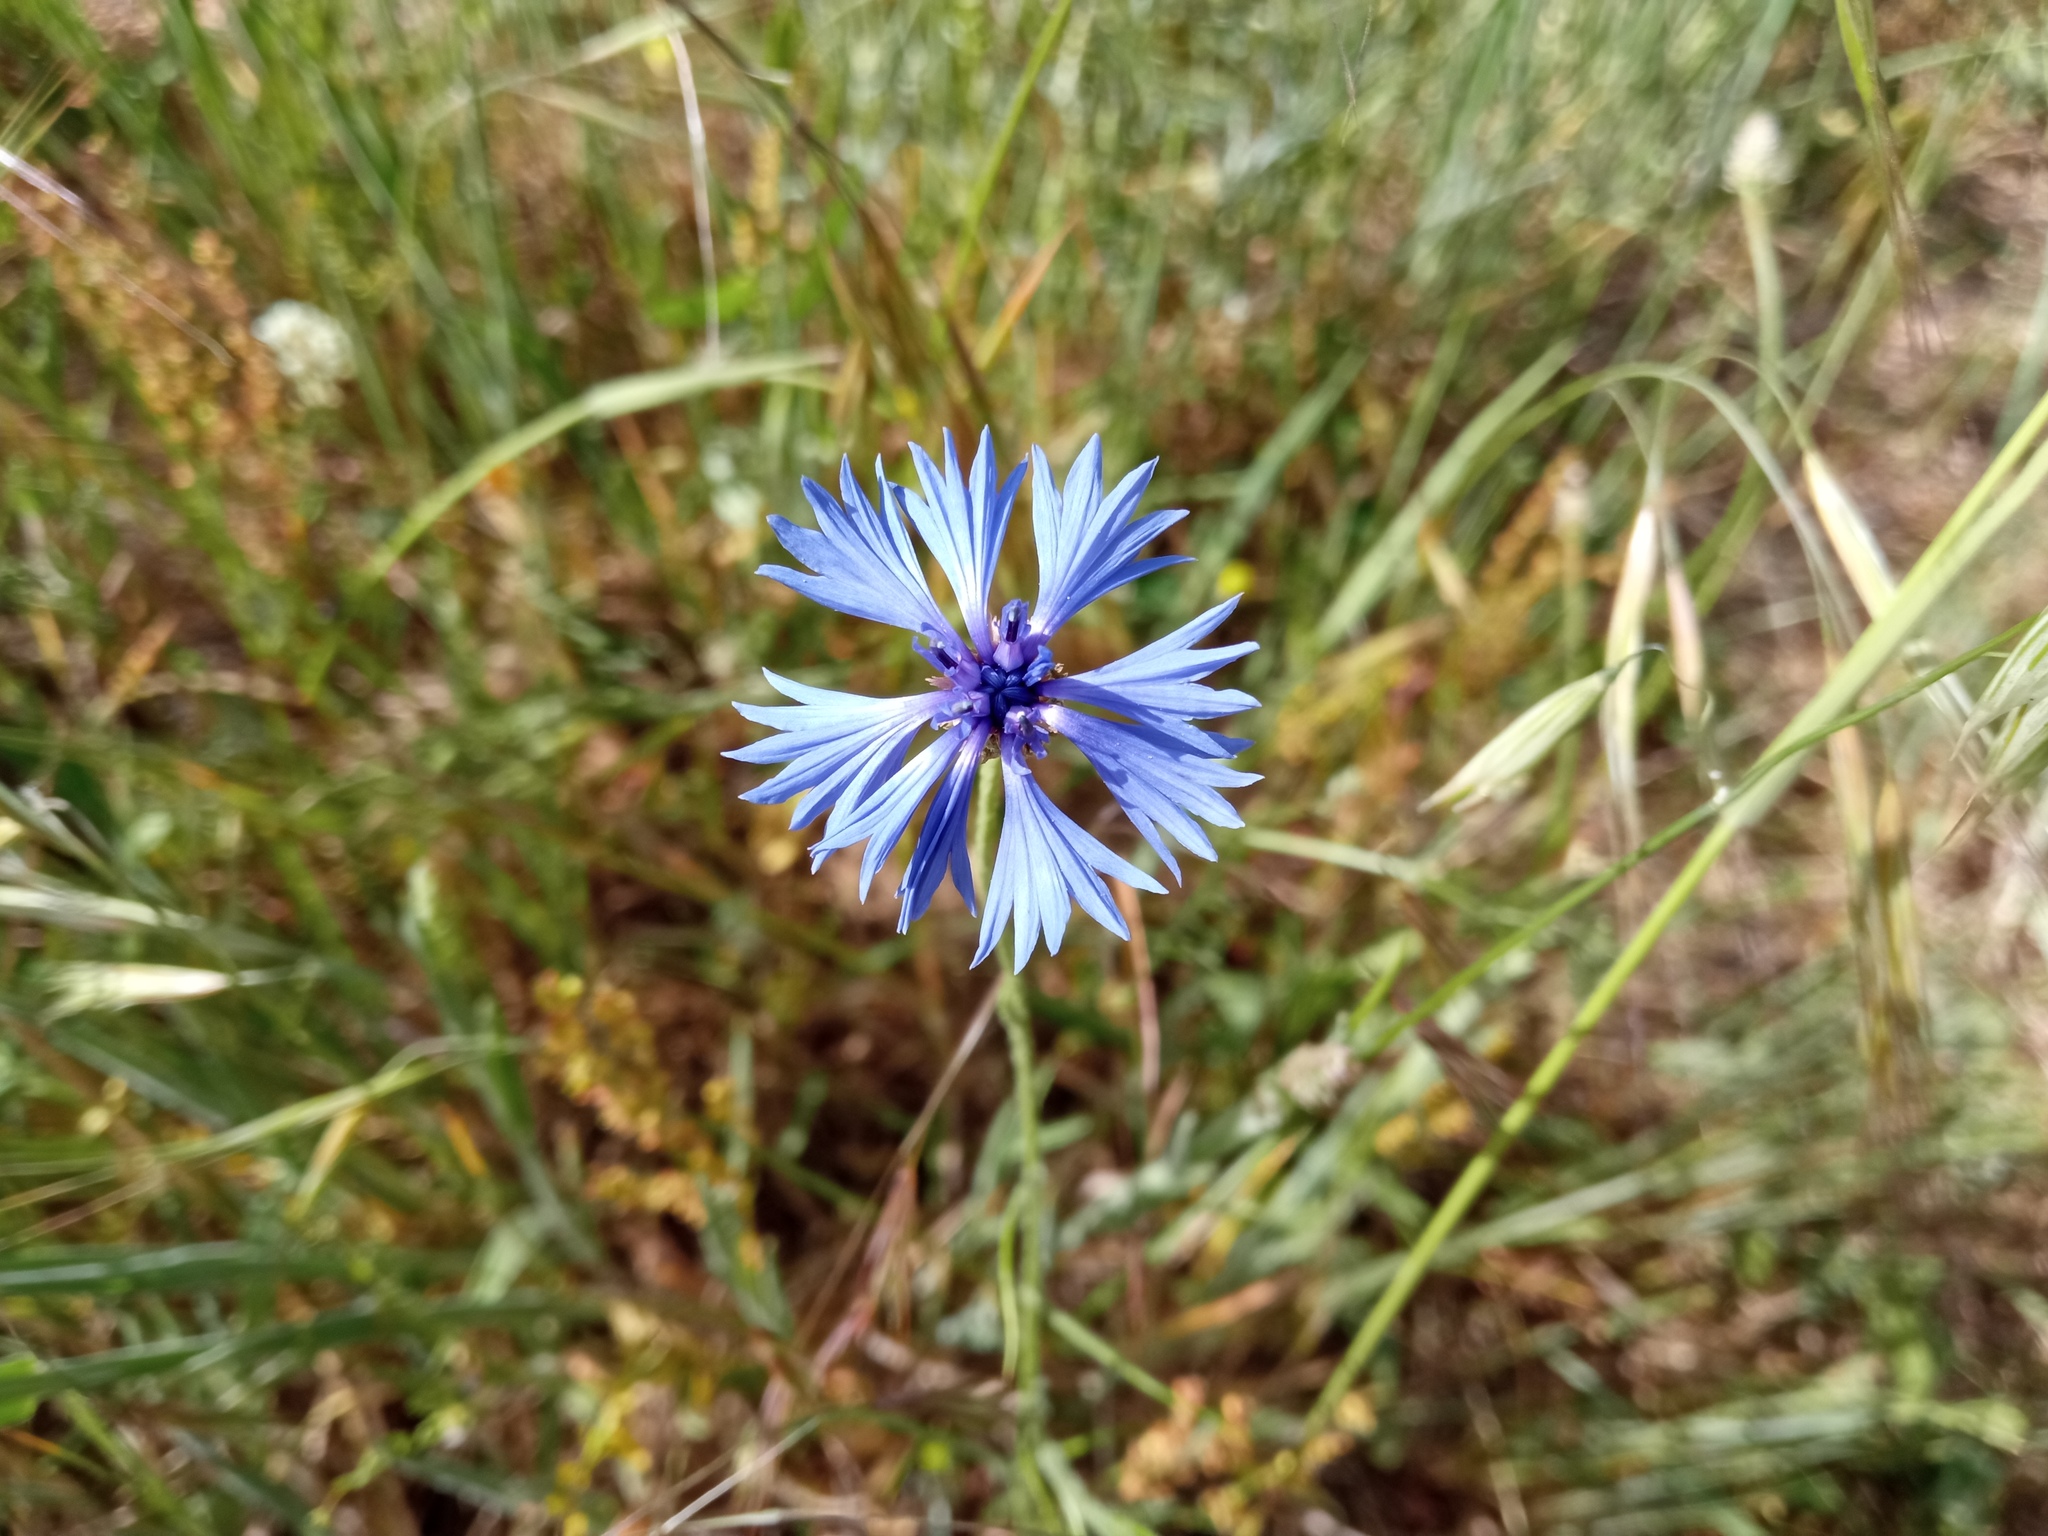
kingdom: Plantae
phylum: Tracheophyta
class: Magnoliopsida
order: Asterales
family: Asteraceae
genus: Centaurea
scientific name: Centaurea cyanus
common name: Cornflower
